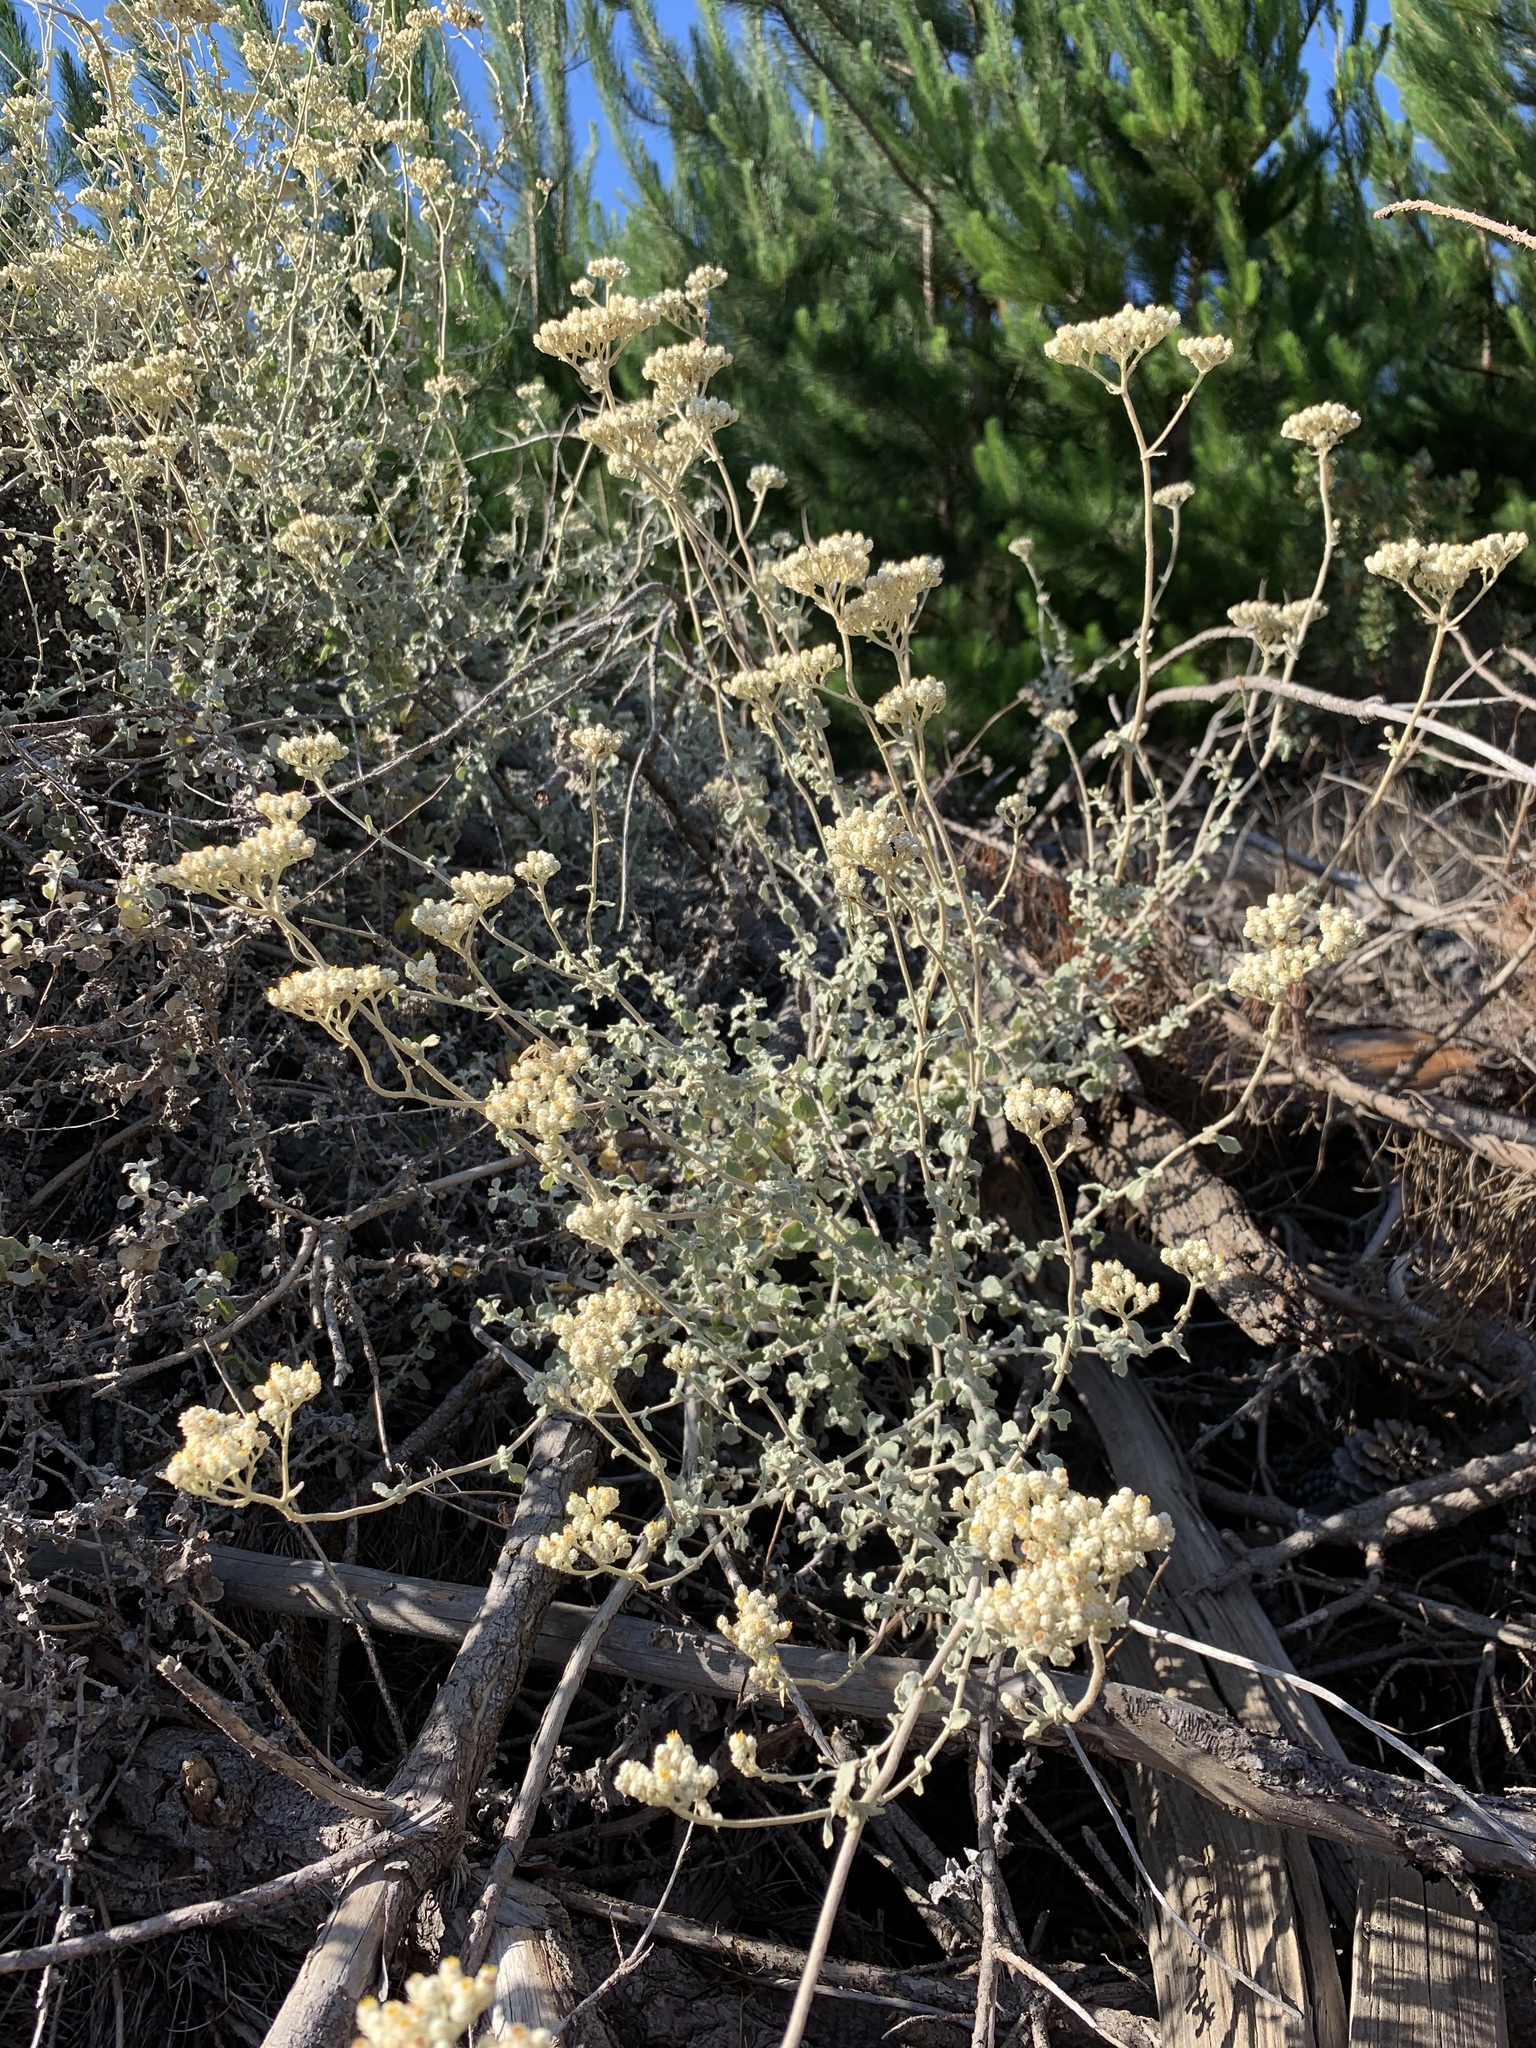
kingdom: Plantae
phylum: Tracheophyta
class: Magnoliopsida
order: Asterales
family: Asteraceae
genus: Helichrysum
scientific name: Helichrysum patulum
